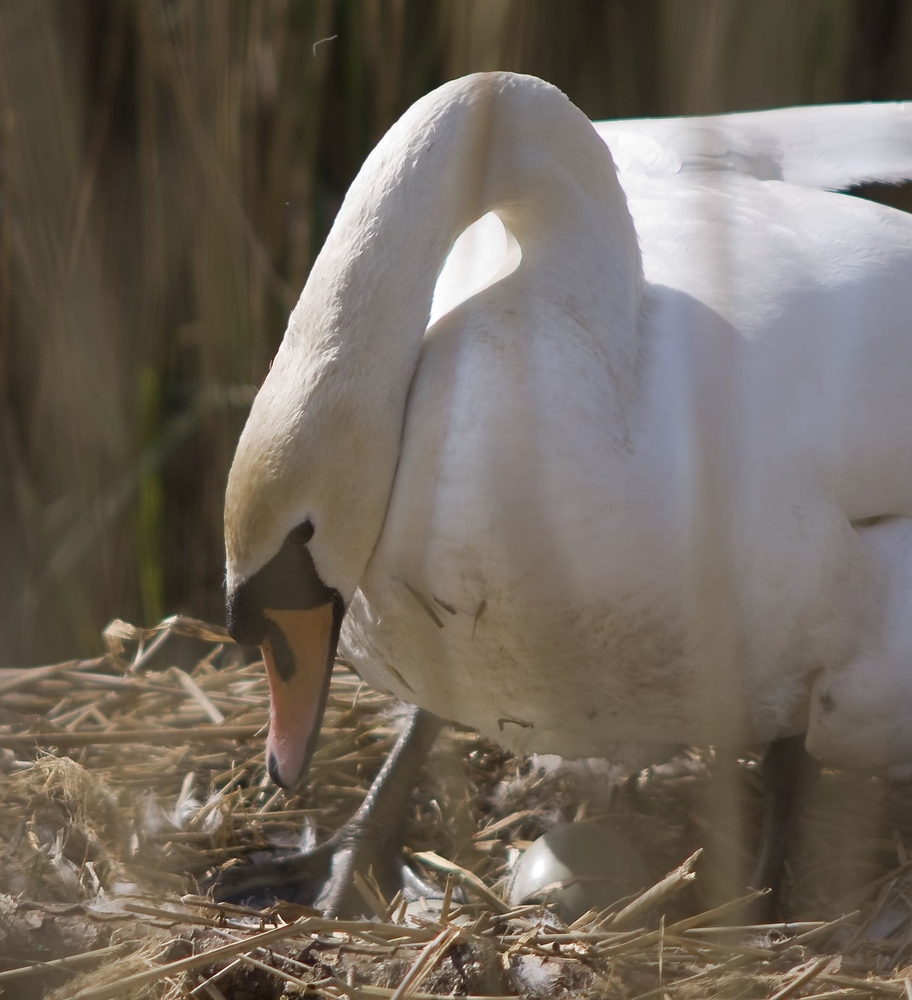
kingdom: Animalia
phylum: Chordata
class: Aves
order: Anseriformes
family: Anatidae
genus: Cygnus
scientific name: Cygnus olor
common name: Mute swan
